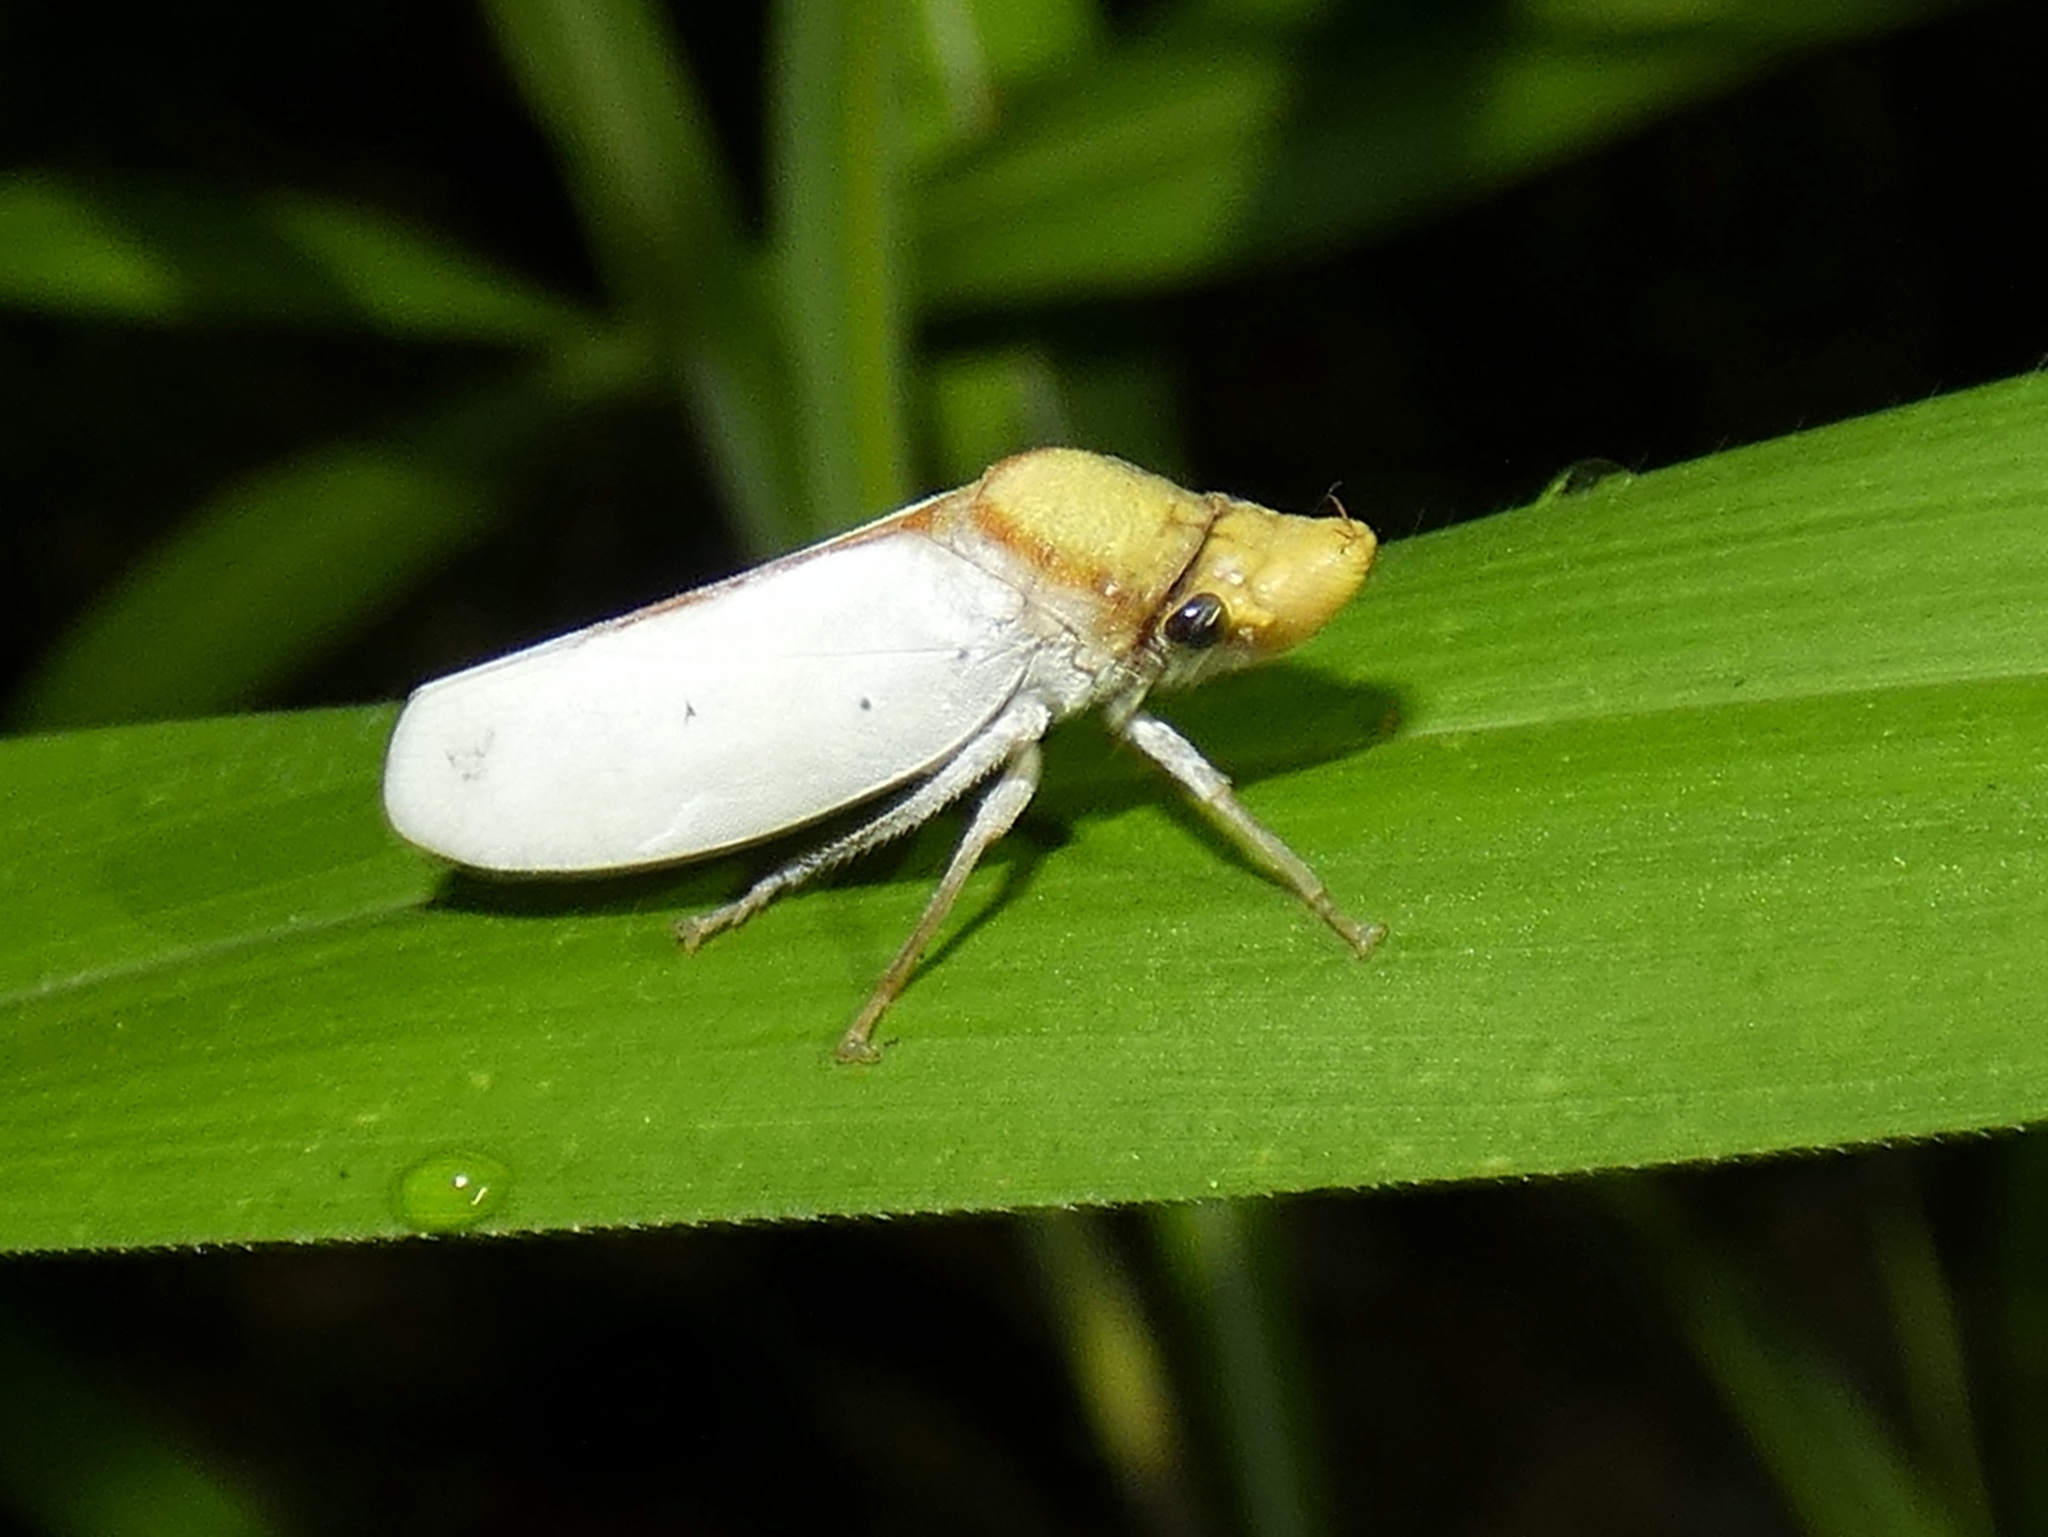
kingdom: Animalia
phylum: Arthropoda
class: Insecta
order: Hemiptera
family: Cicadellidae
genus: Diestostemma
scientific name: Diestostemma chinai
